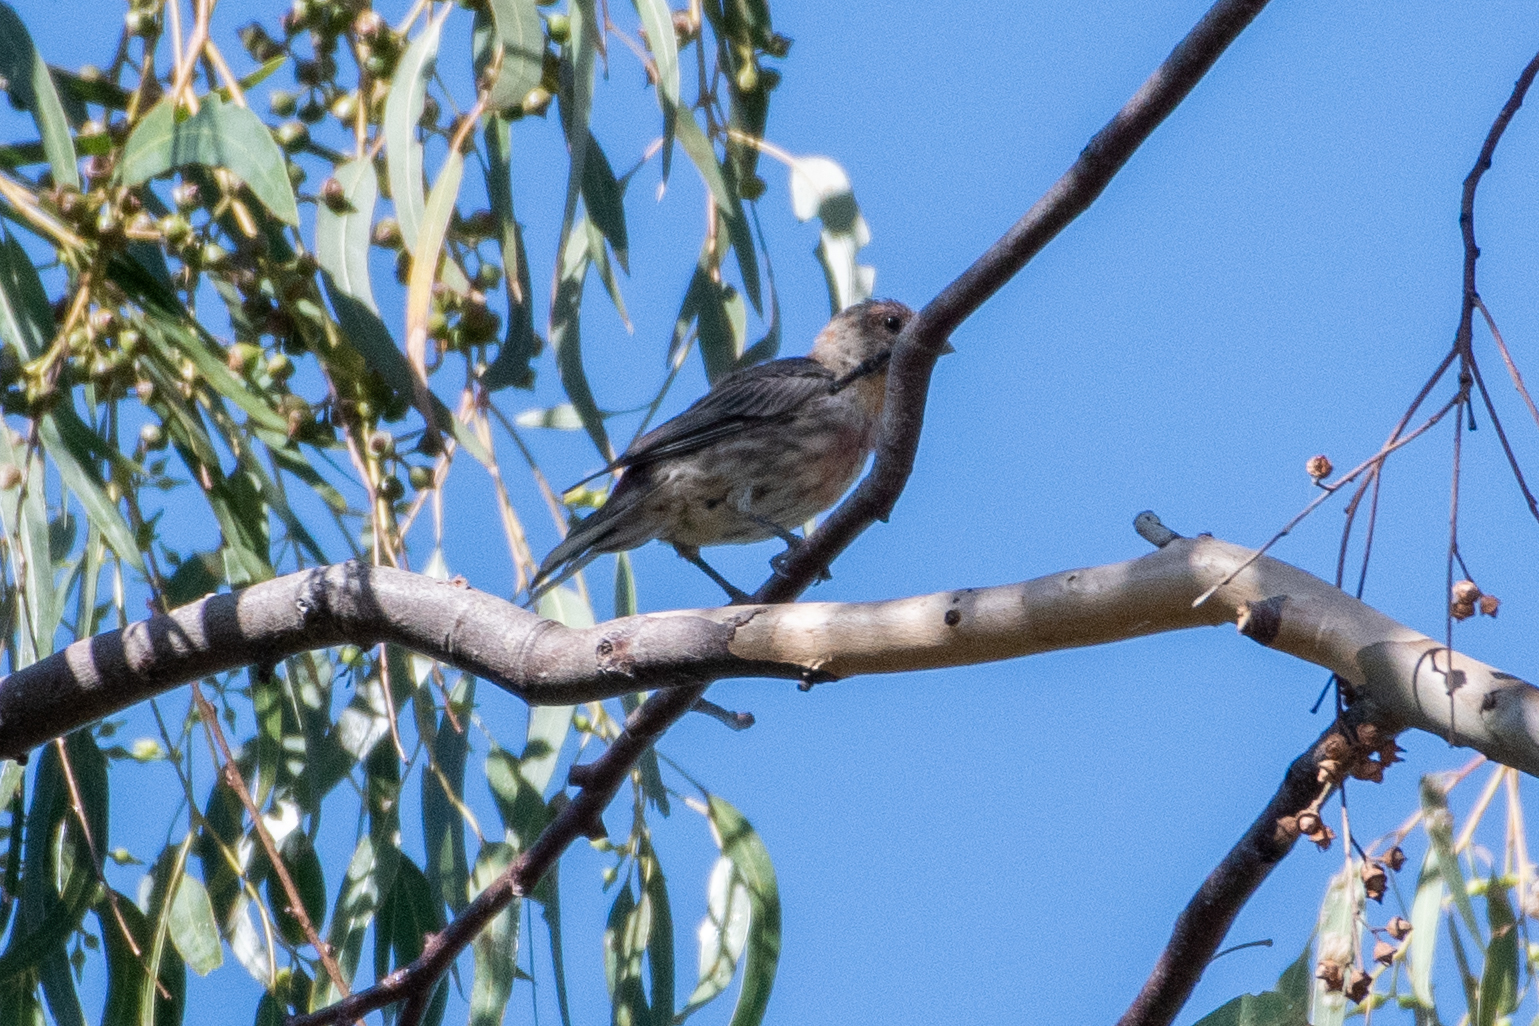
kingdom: Animalia
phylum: Chordata
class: Aves
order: Passeriformes
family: Fringillidae
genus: Haemorhous
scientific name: Haemorhous mexicanus
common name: House finch
